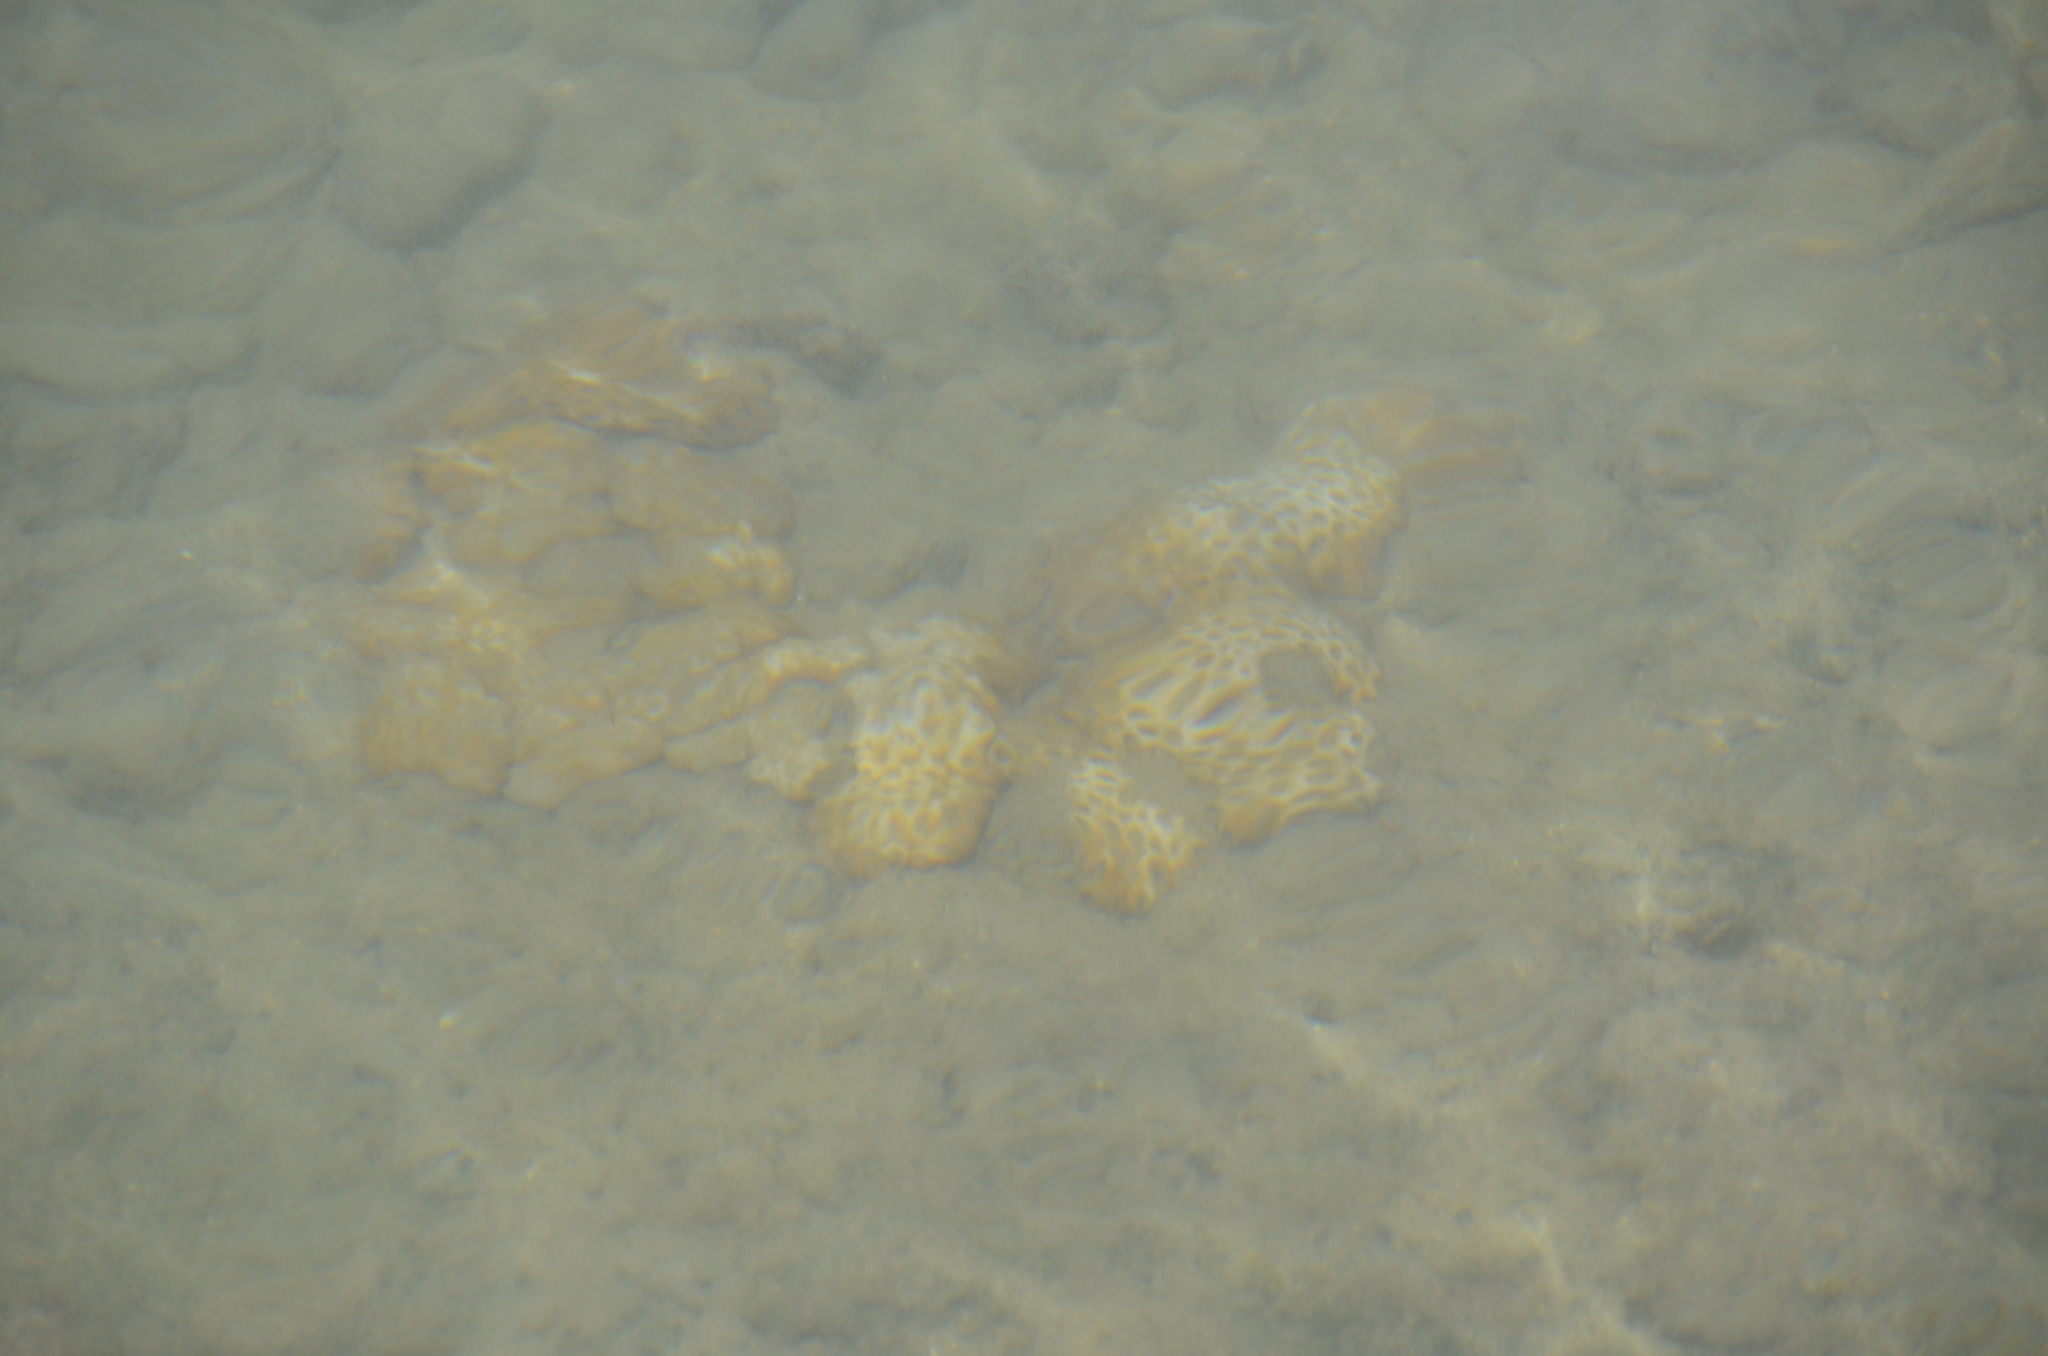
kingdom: Animalia
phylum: Cnidaria
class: Anthozoa
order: Zoantharia
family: Sphenopidae
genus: Palythoa
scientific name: Palythoa tuberculosa
